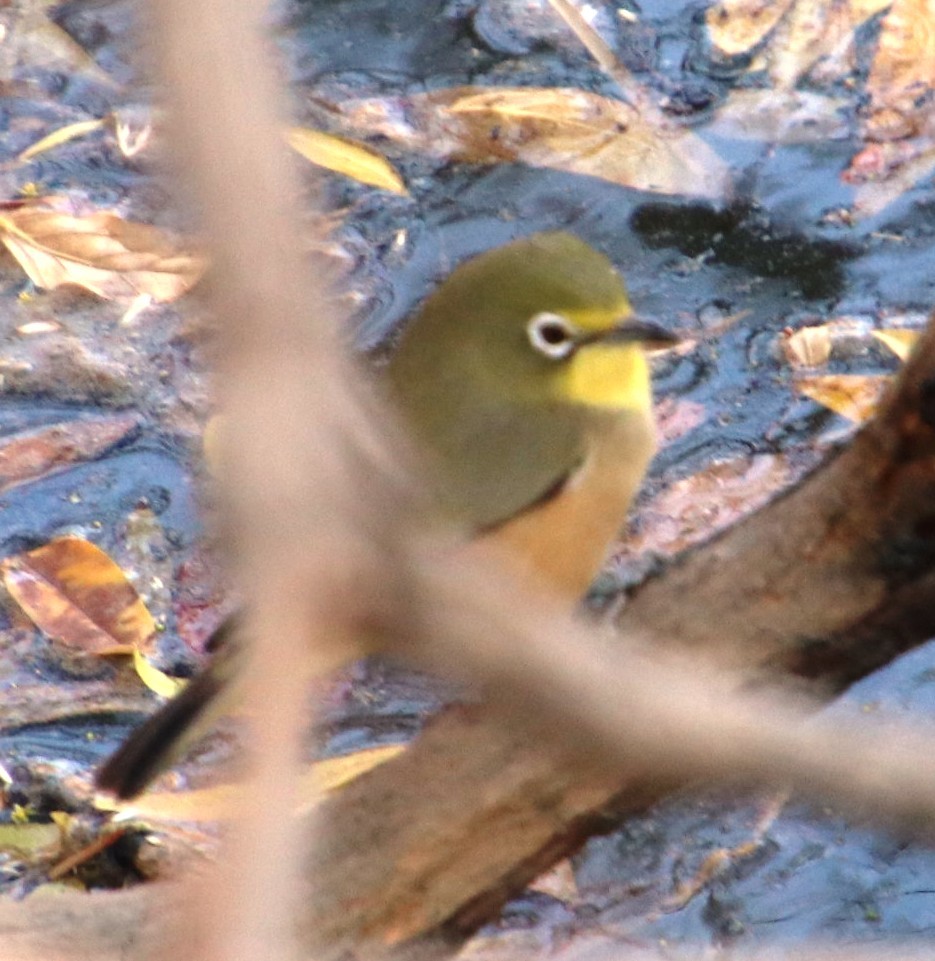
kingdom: Animalia
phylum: Chordata
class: Aves
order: Passeriformes
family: Zosteropidae
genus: Zosterops
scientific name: Zosterops pallidus
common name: Orange river white-eye
